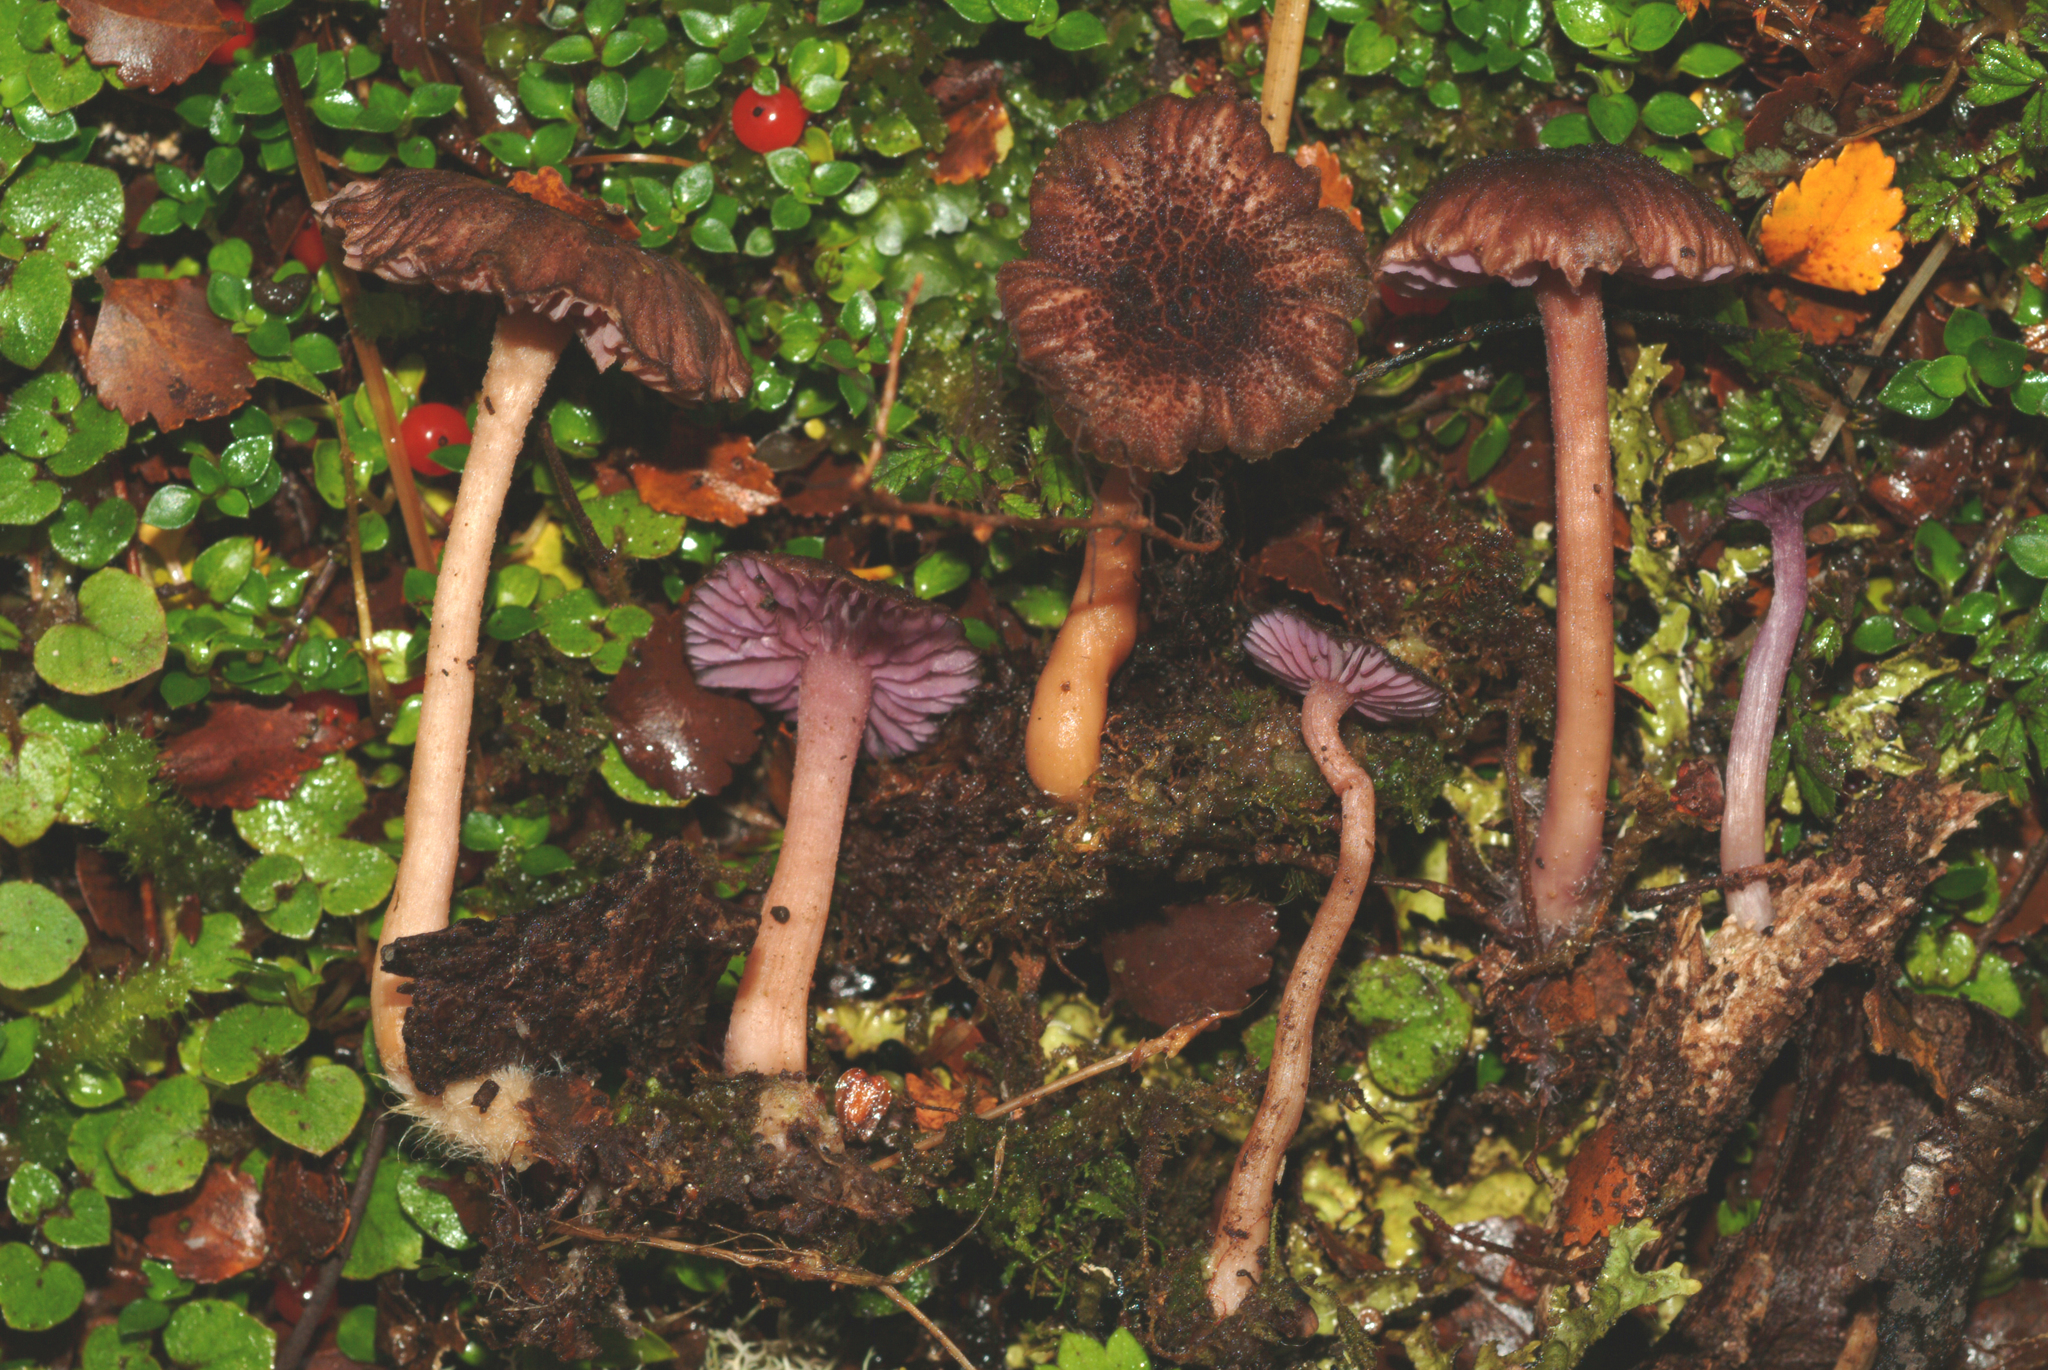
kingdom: Fungi
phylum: Basidiomycota
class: Agaricomycetes
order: Agaricales
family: Hydnangiaceae
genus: Laccaria
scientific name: Laccaria lilacina
